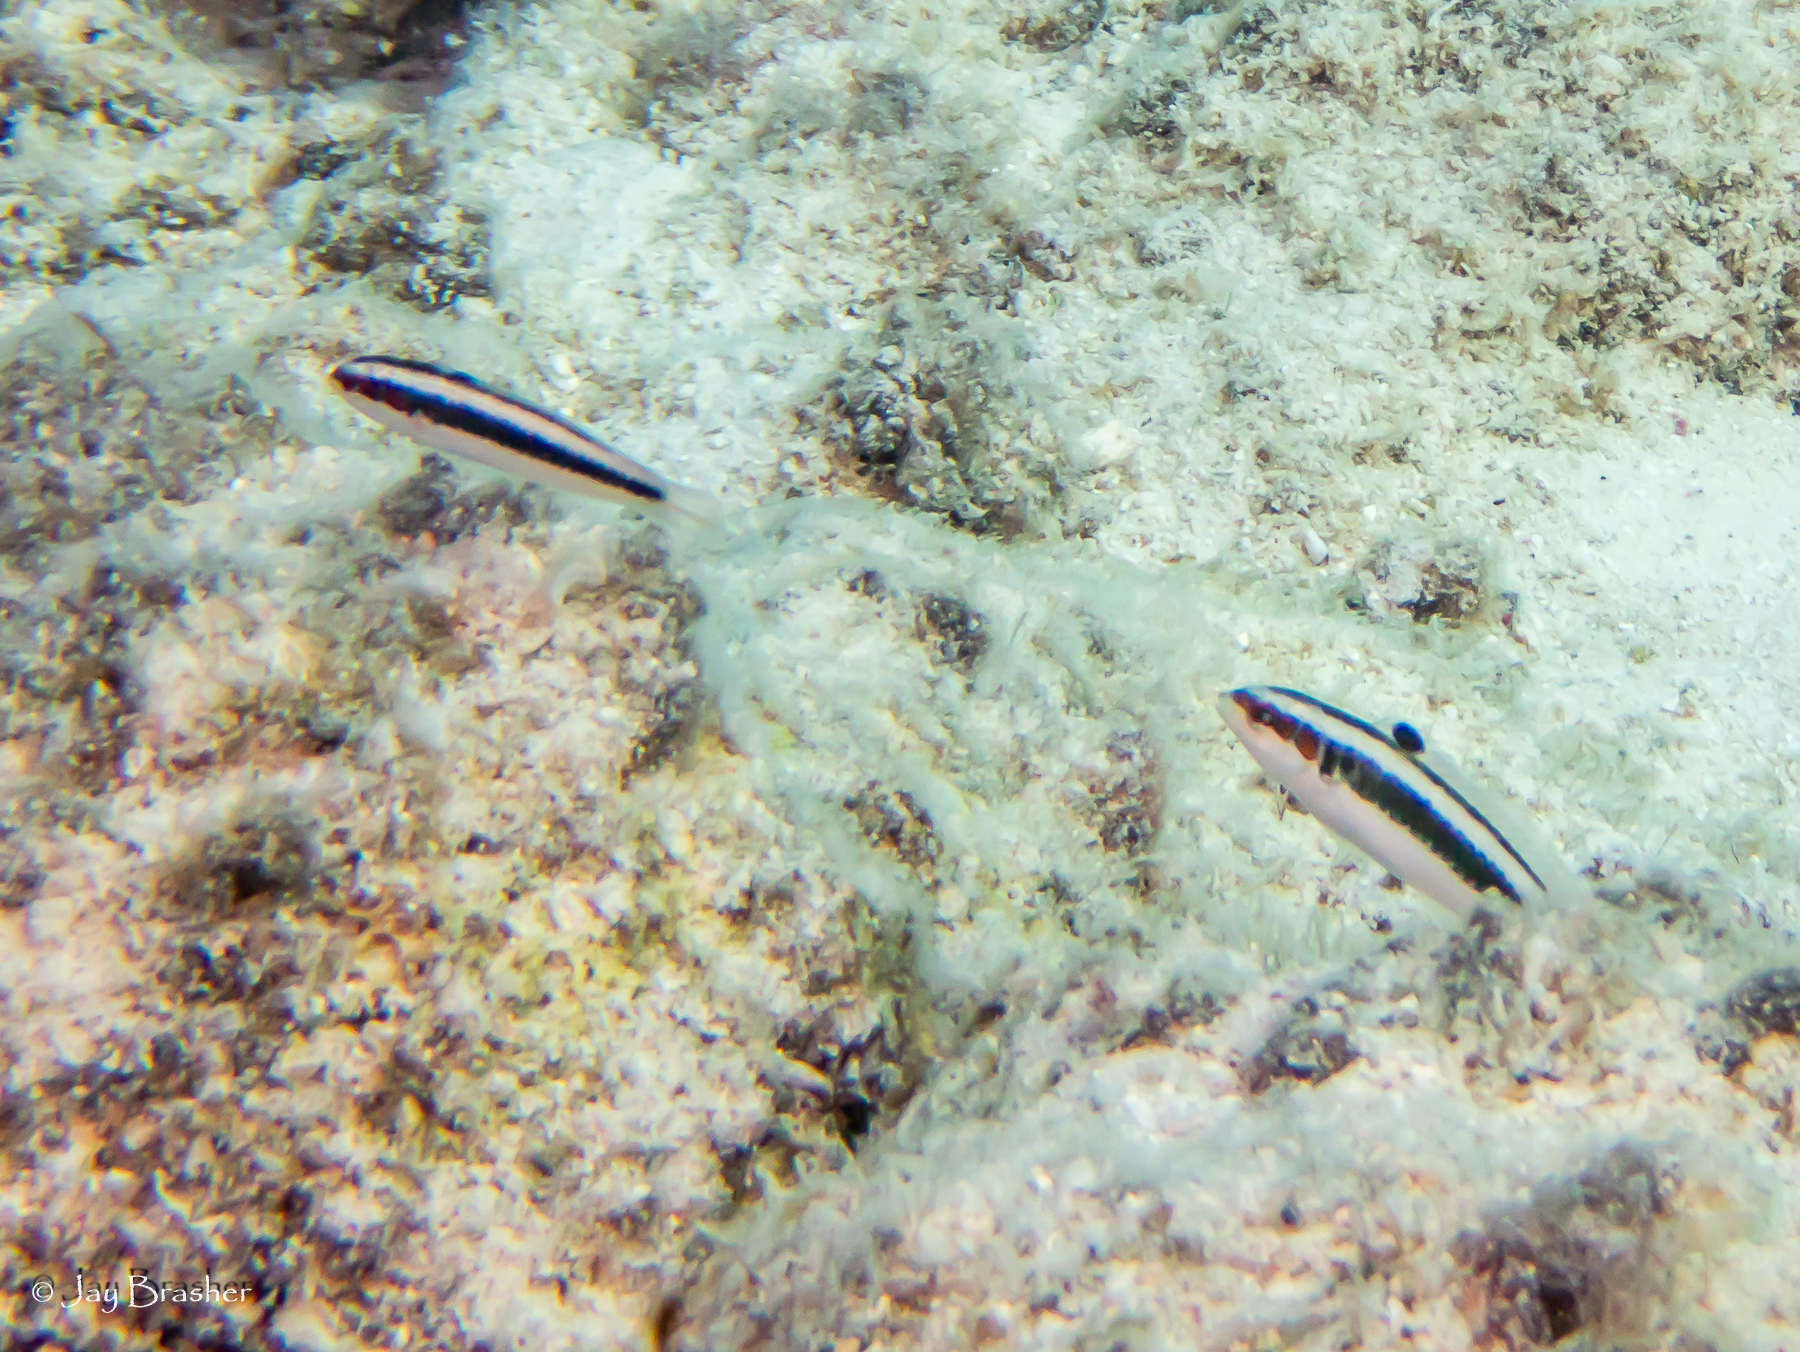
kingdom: Animalia
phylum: Chordata
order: Perciformes
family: Labridae
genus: Thalassoma
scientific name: Thalassoma bifasciatum
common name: Bluehead wrasse
